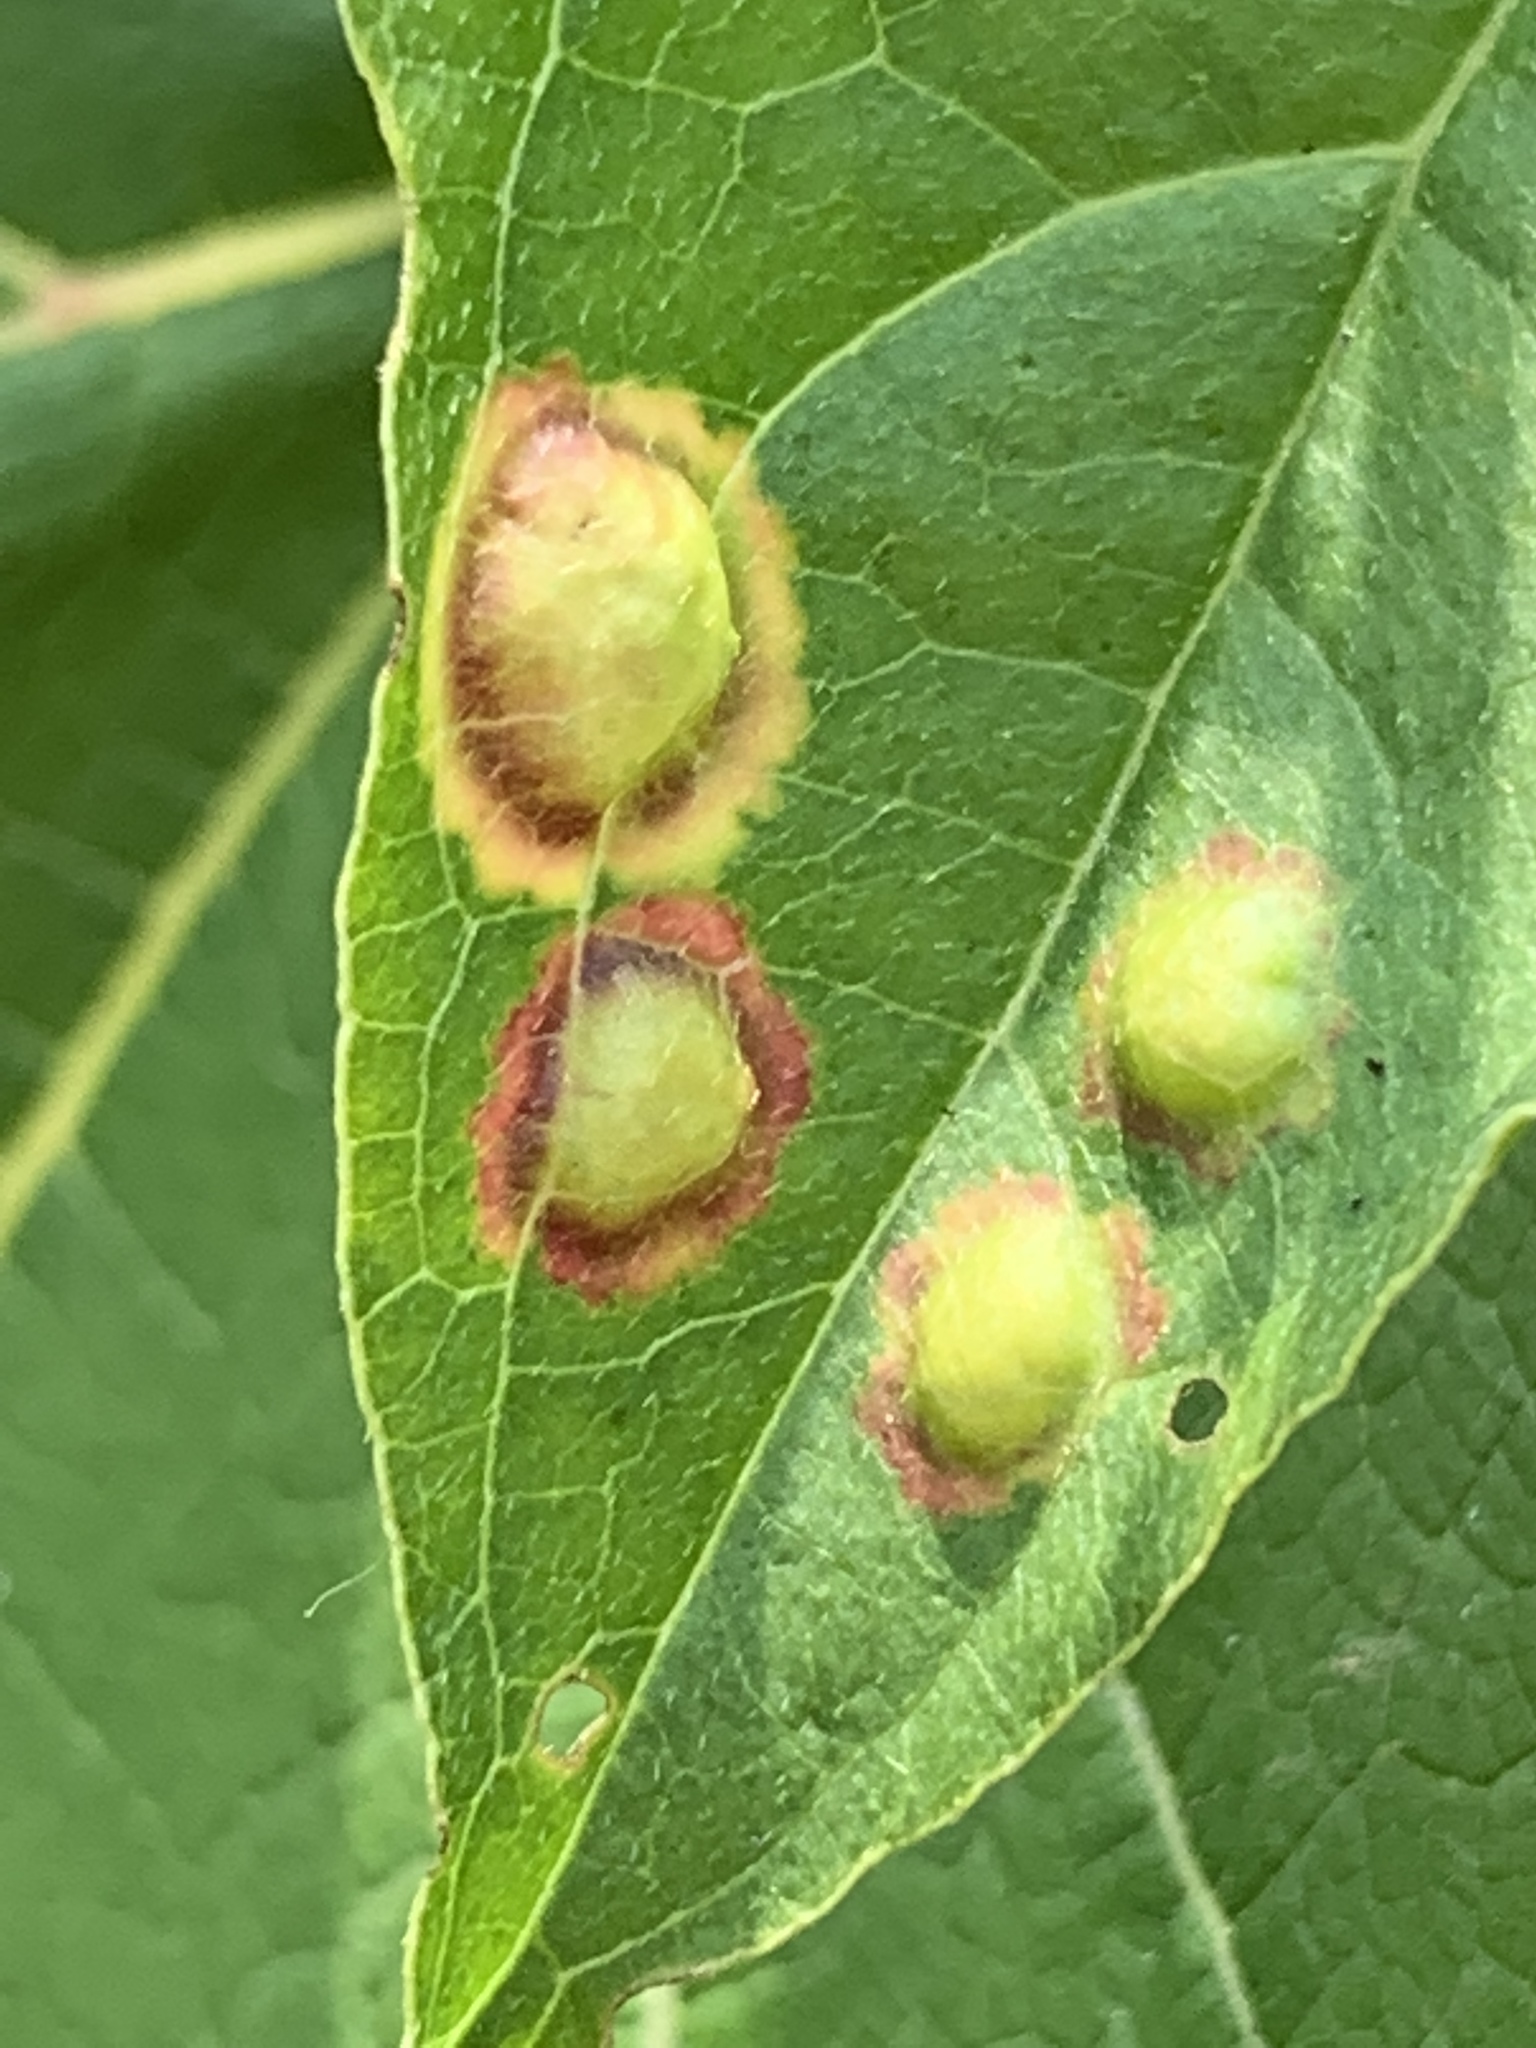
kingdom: Animalia
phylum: Arthropoda
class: Insecta
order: Diptera
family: Cecidomyiidae
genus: Parallelodiplosis
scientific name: Parallelodiplosis subtruncata
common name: Dogwood eyespot gall midge
